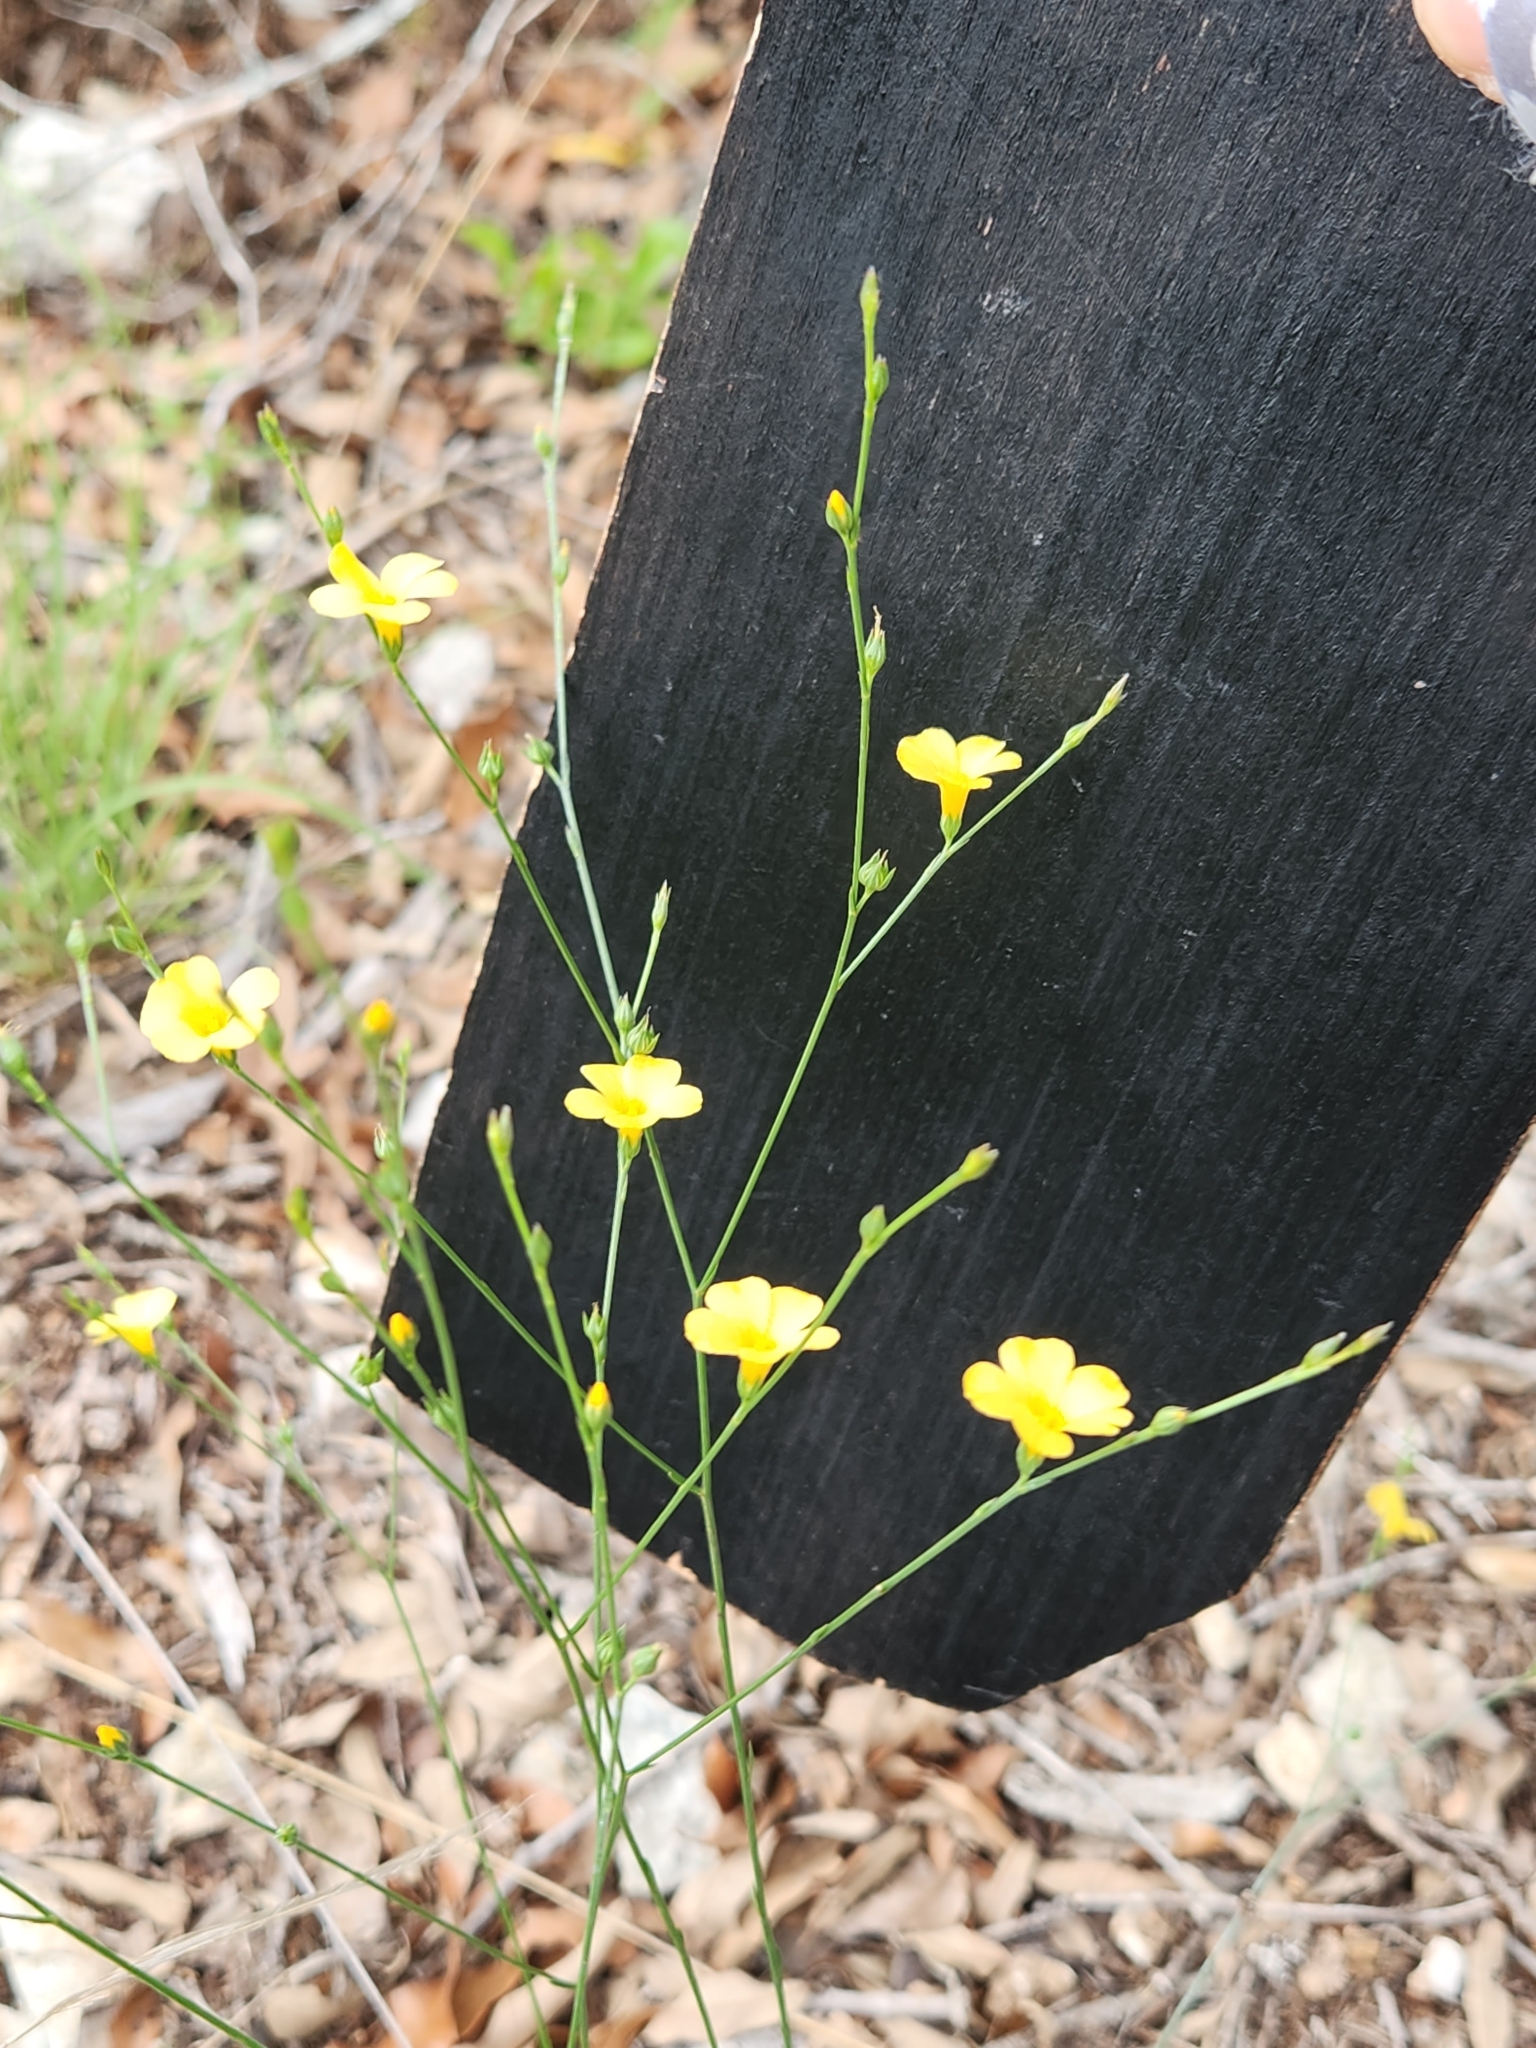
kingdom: Plantae
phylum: Tracheophyta
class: Magnoliopsida
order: Malpighiales
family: Linaceae
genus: Linum
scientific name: Linum rupestre
